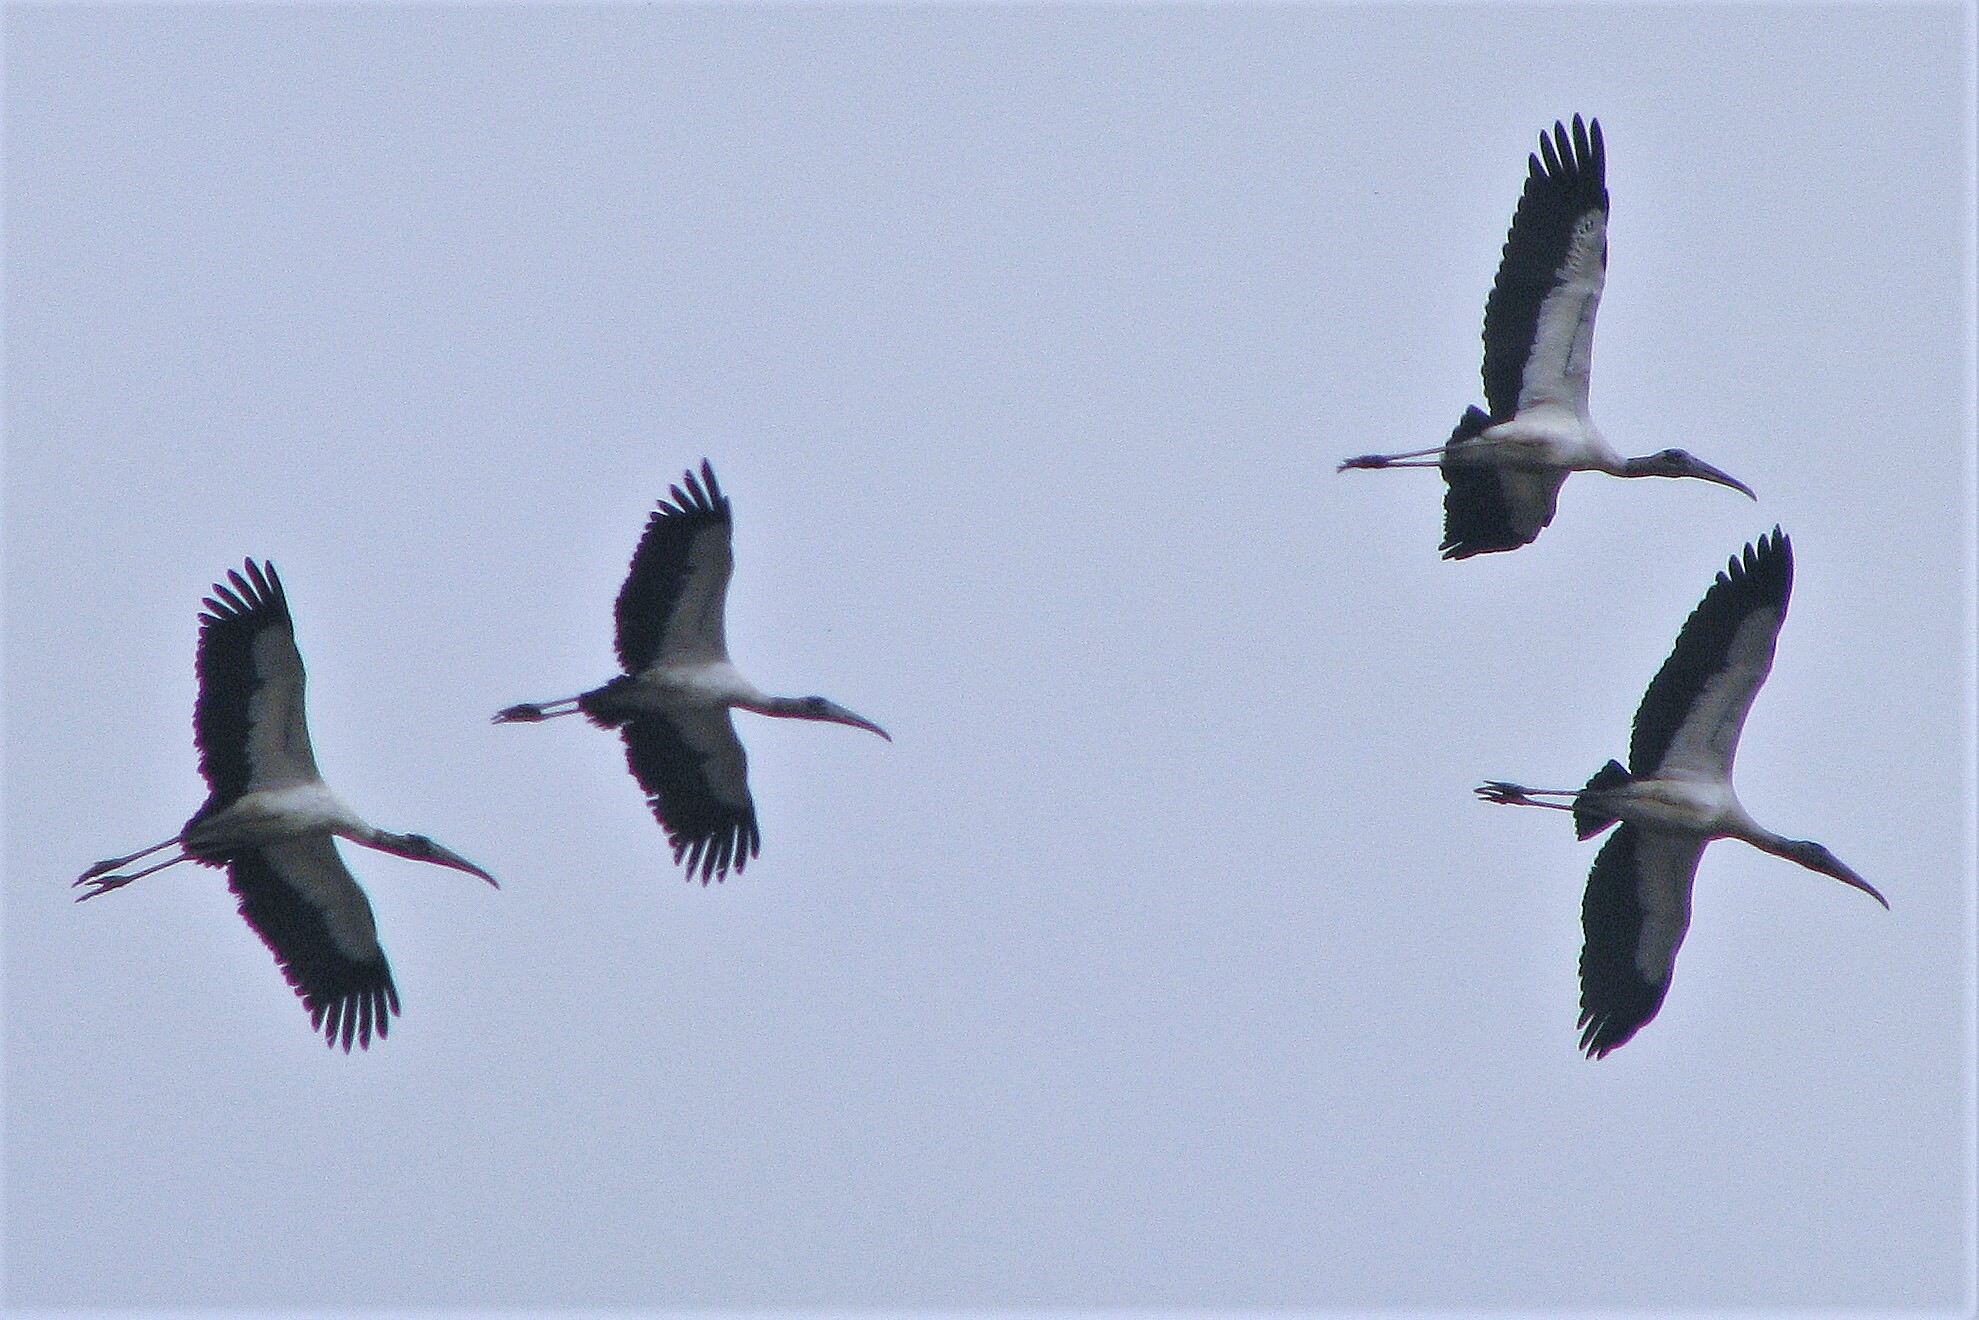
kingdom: Animalia
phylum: Chordata
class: Aves
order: Ciconiiformes
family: Ciconiidae
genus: Mycteria
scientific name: Mycteria americana
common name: Wood stork
